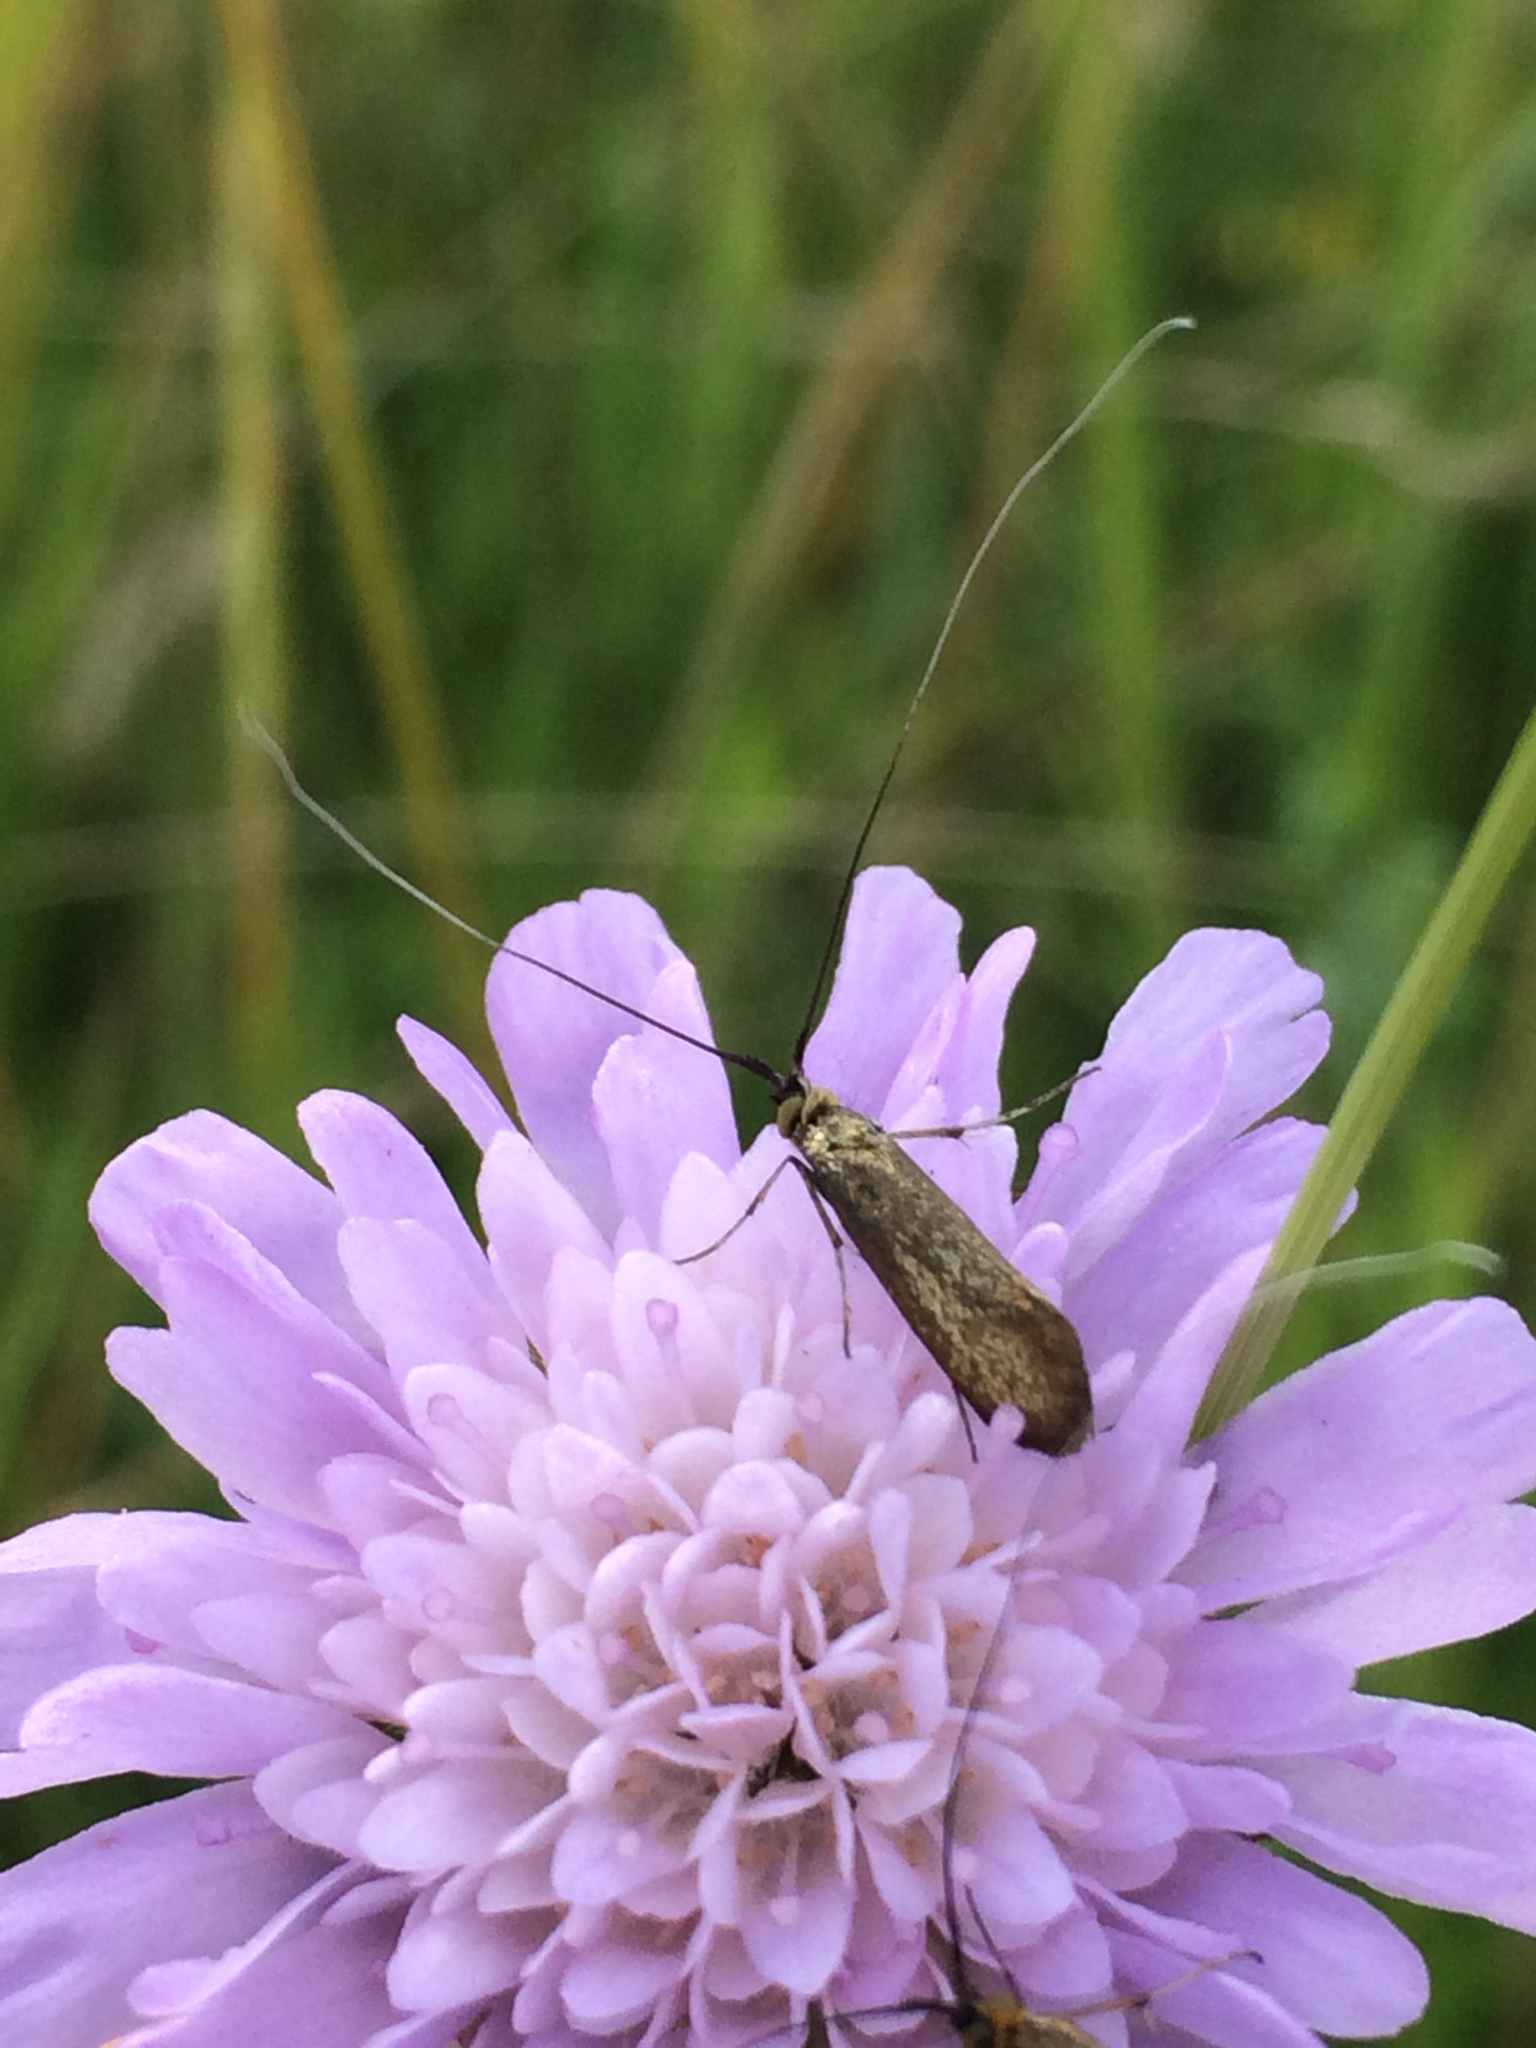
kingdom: Animalia
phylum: Arthropoda
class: Insecta
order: Lepidoptera
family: Adelidae
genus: Nemophora
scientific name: Nemophora metallica
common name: Brassy long-horn
